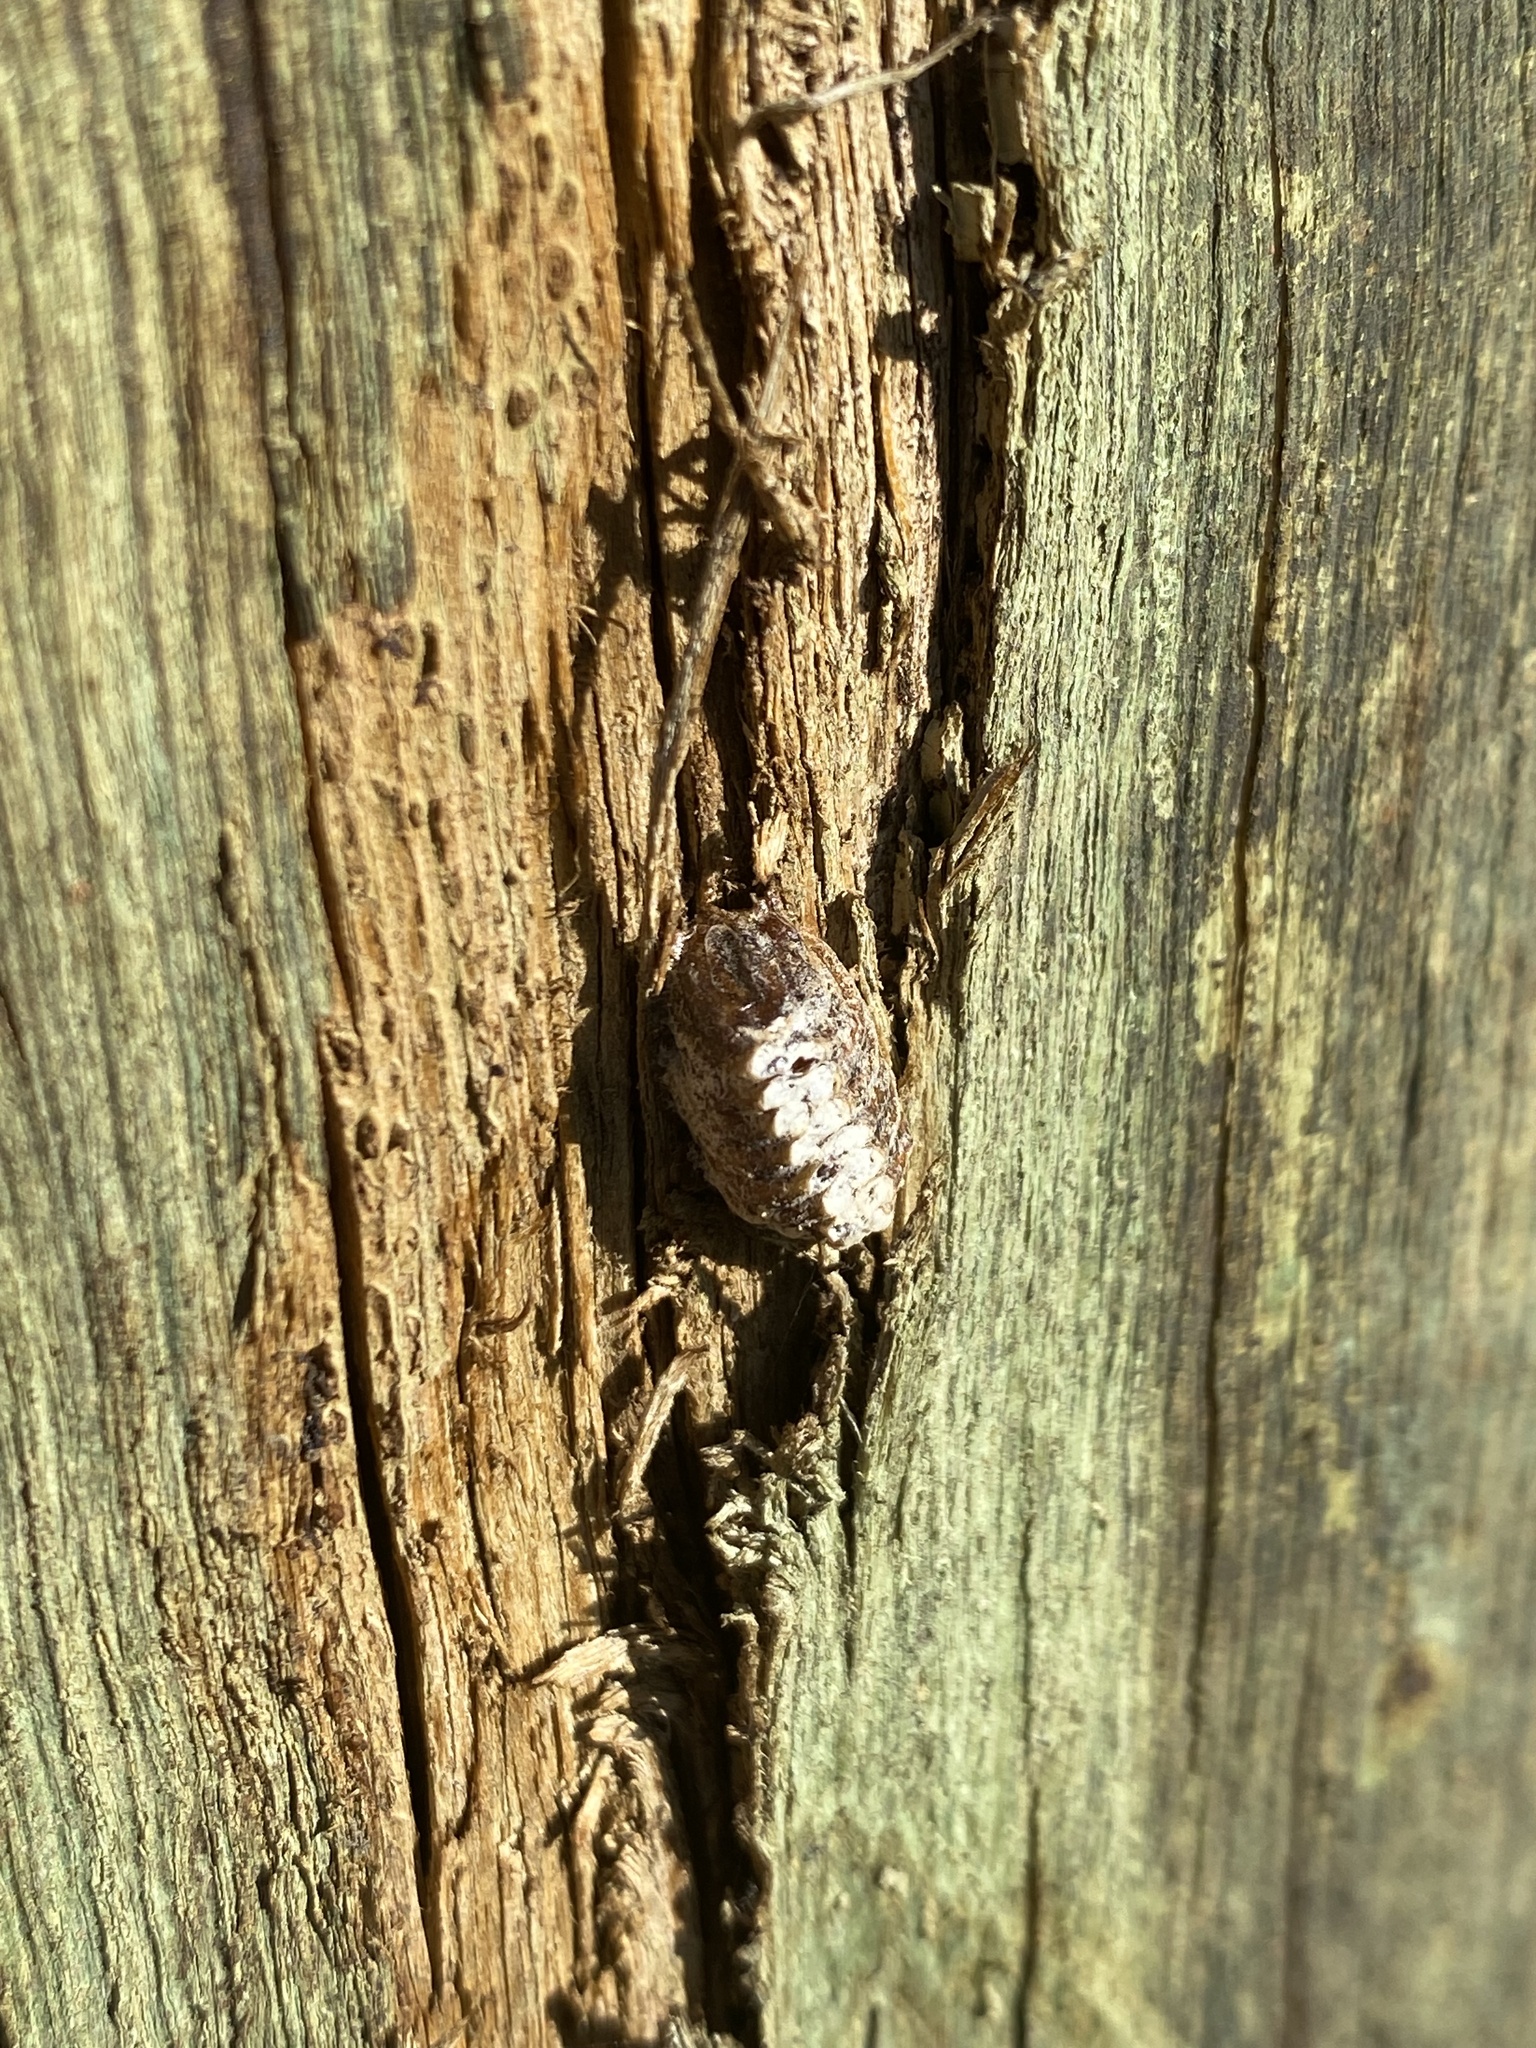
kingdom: Animalia
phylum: Arthropoda
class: Insecta
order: Mantodea
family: Mantidae
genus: Orthodera
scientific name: Orthodera novaezealandiae
